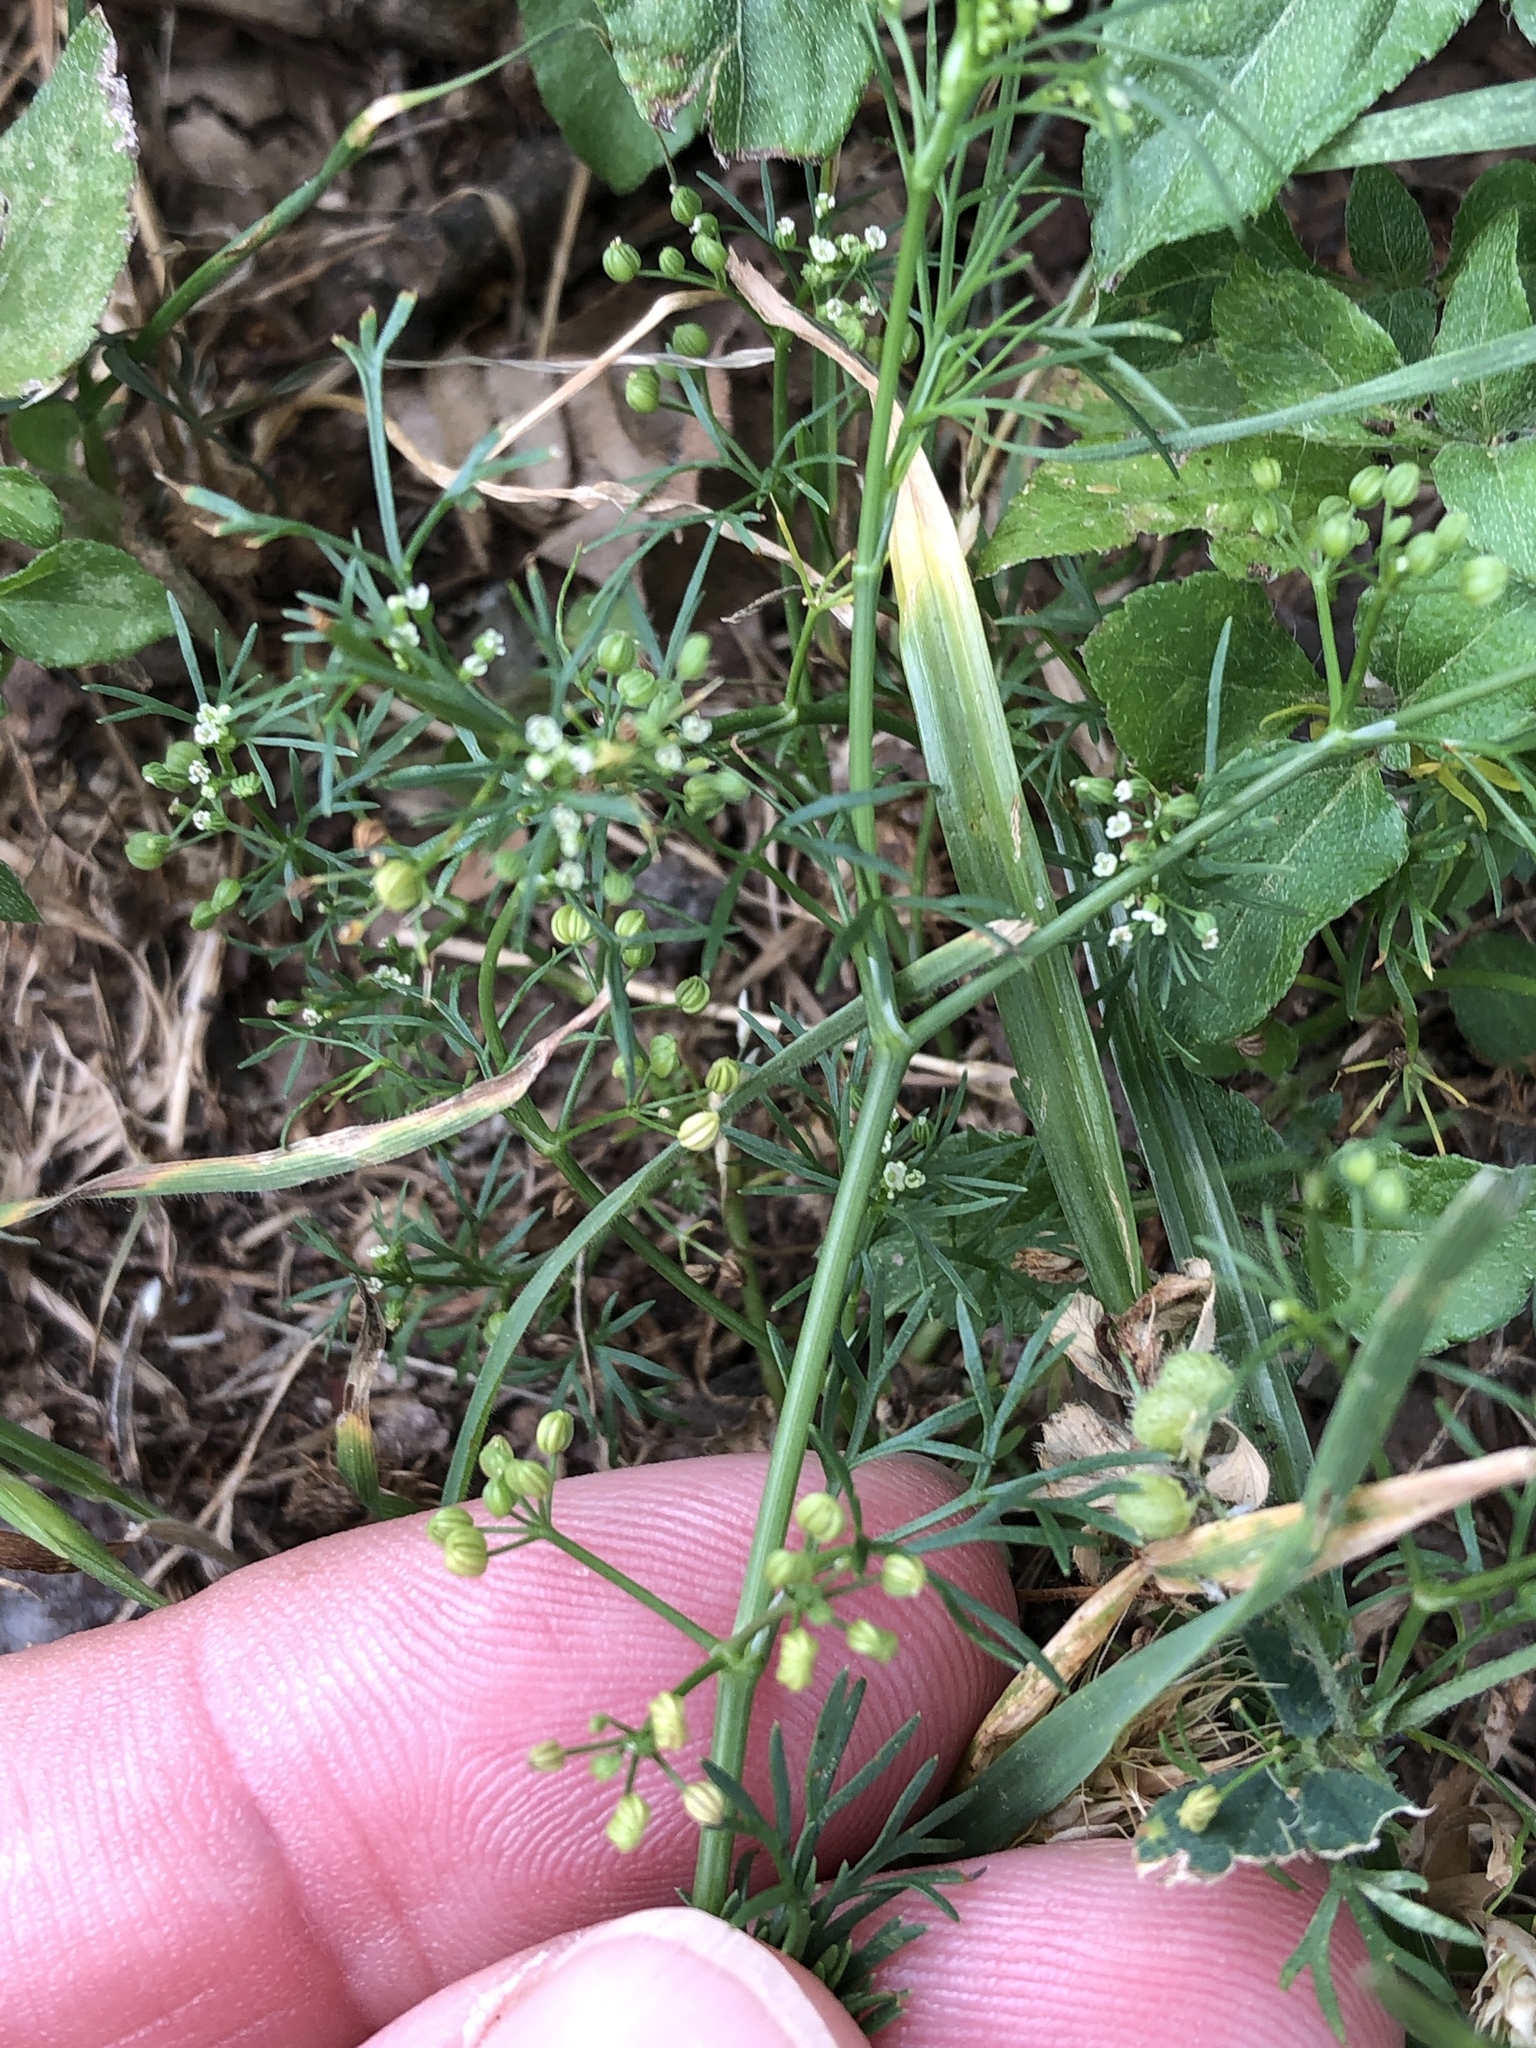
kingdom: Plantae
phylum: Tracheophyta
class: Magnoliopsida
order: Apiales
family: Apiaceae
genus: Cyclospermum
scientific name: Cyclospermum leptophyllum
